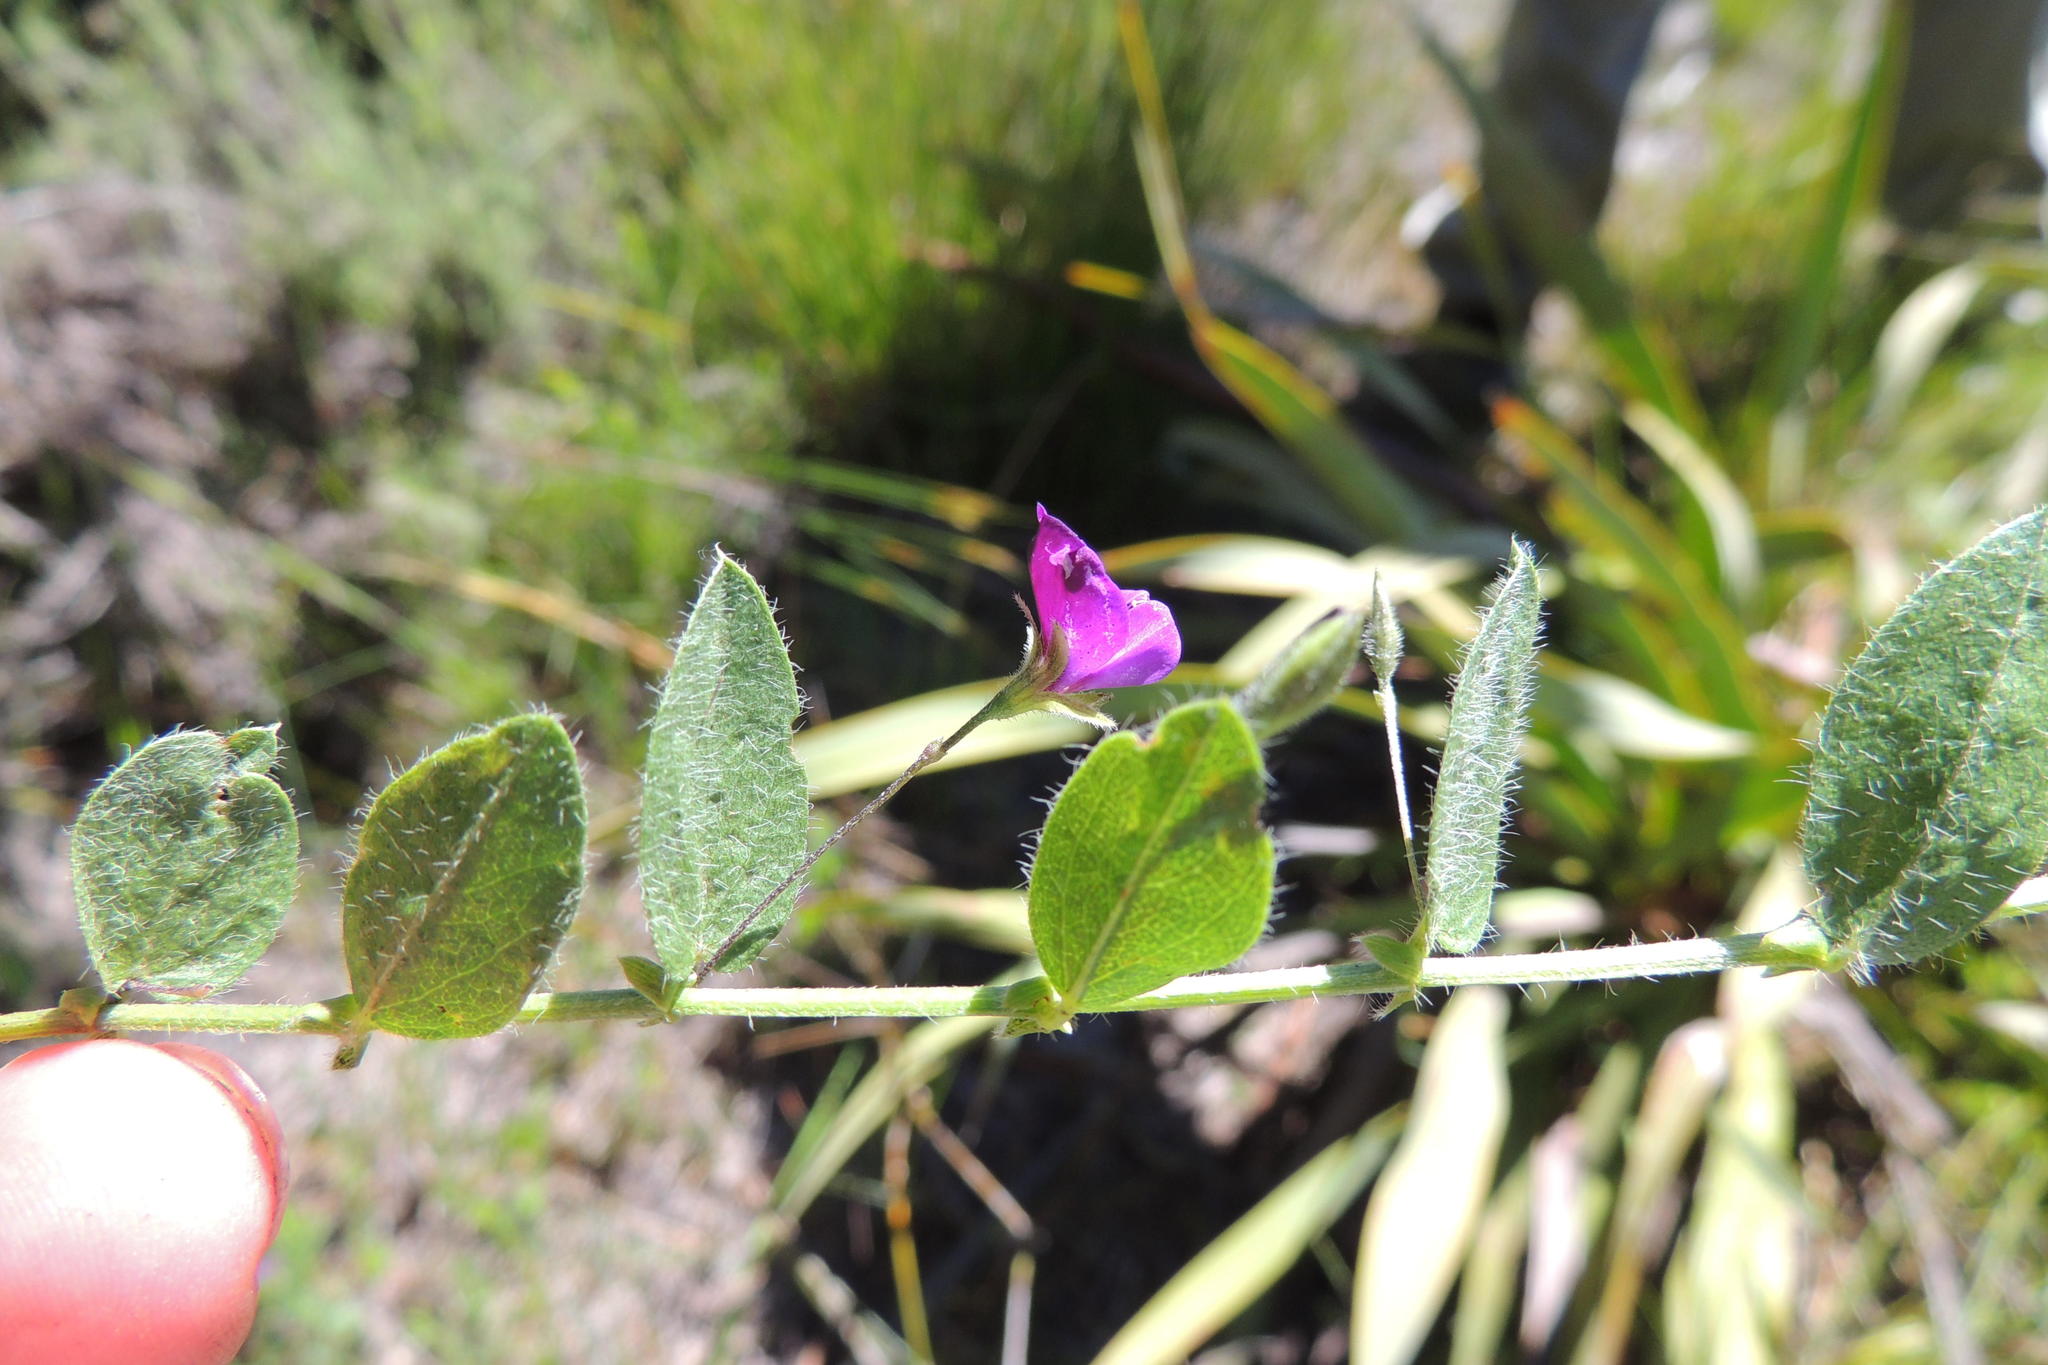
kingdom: Plantae
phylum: Tracheophyta
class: Magnoliopsida
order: Fabales
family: Fabaceae
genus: Psoralea
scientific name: Psoralea asarina
